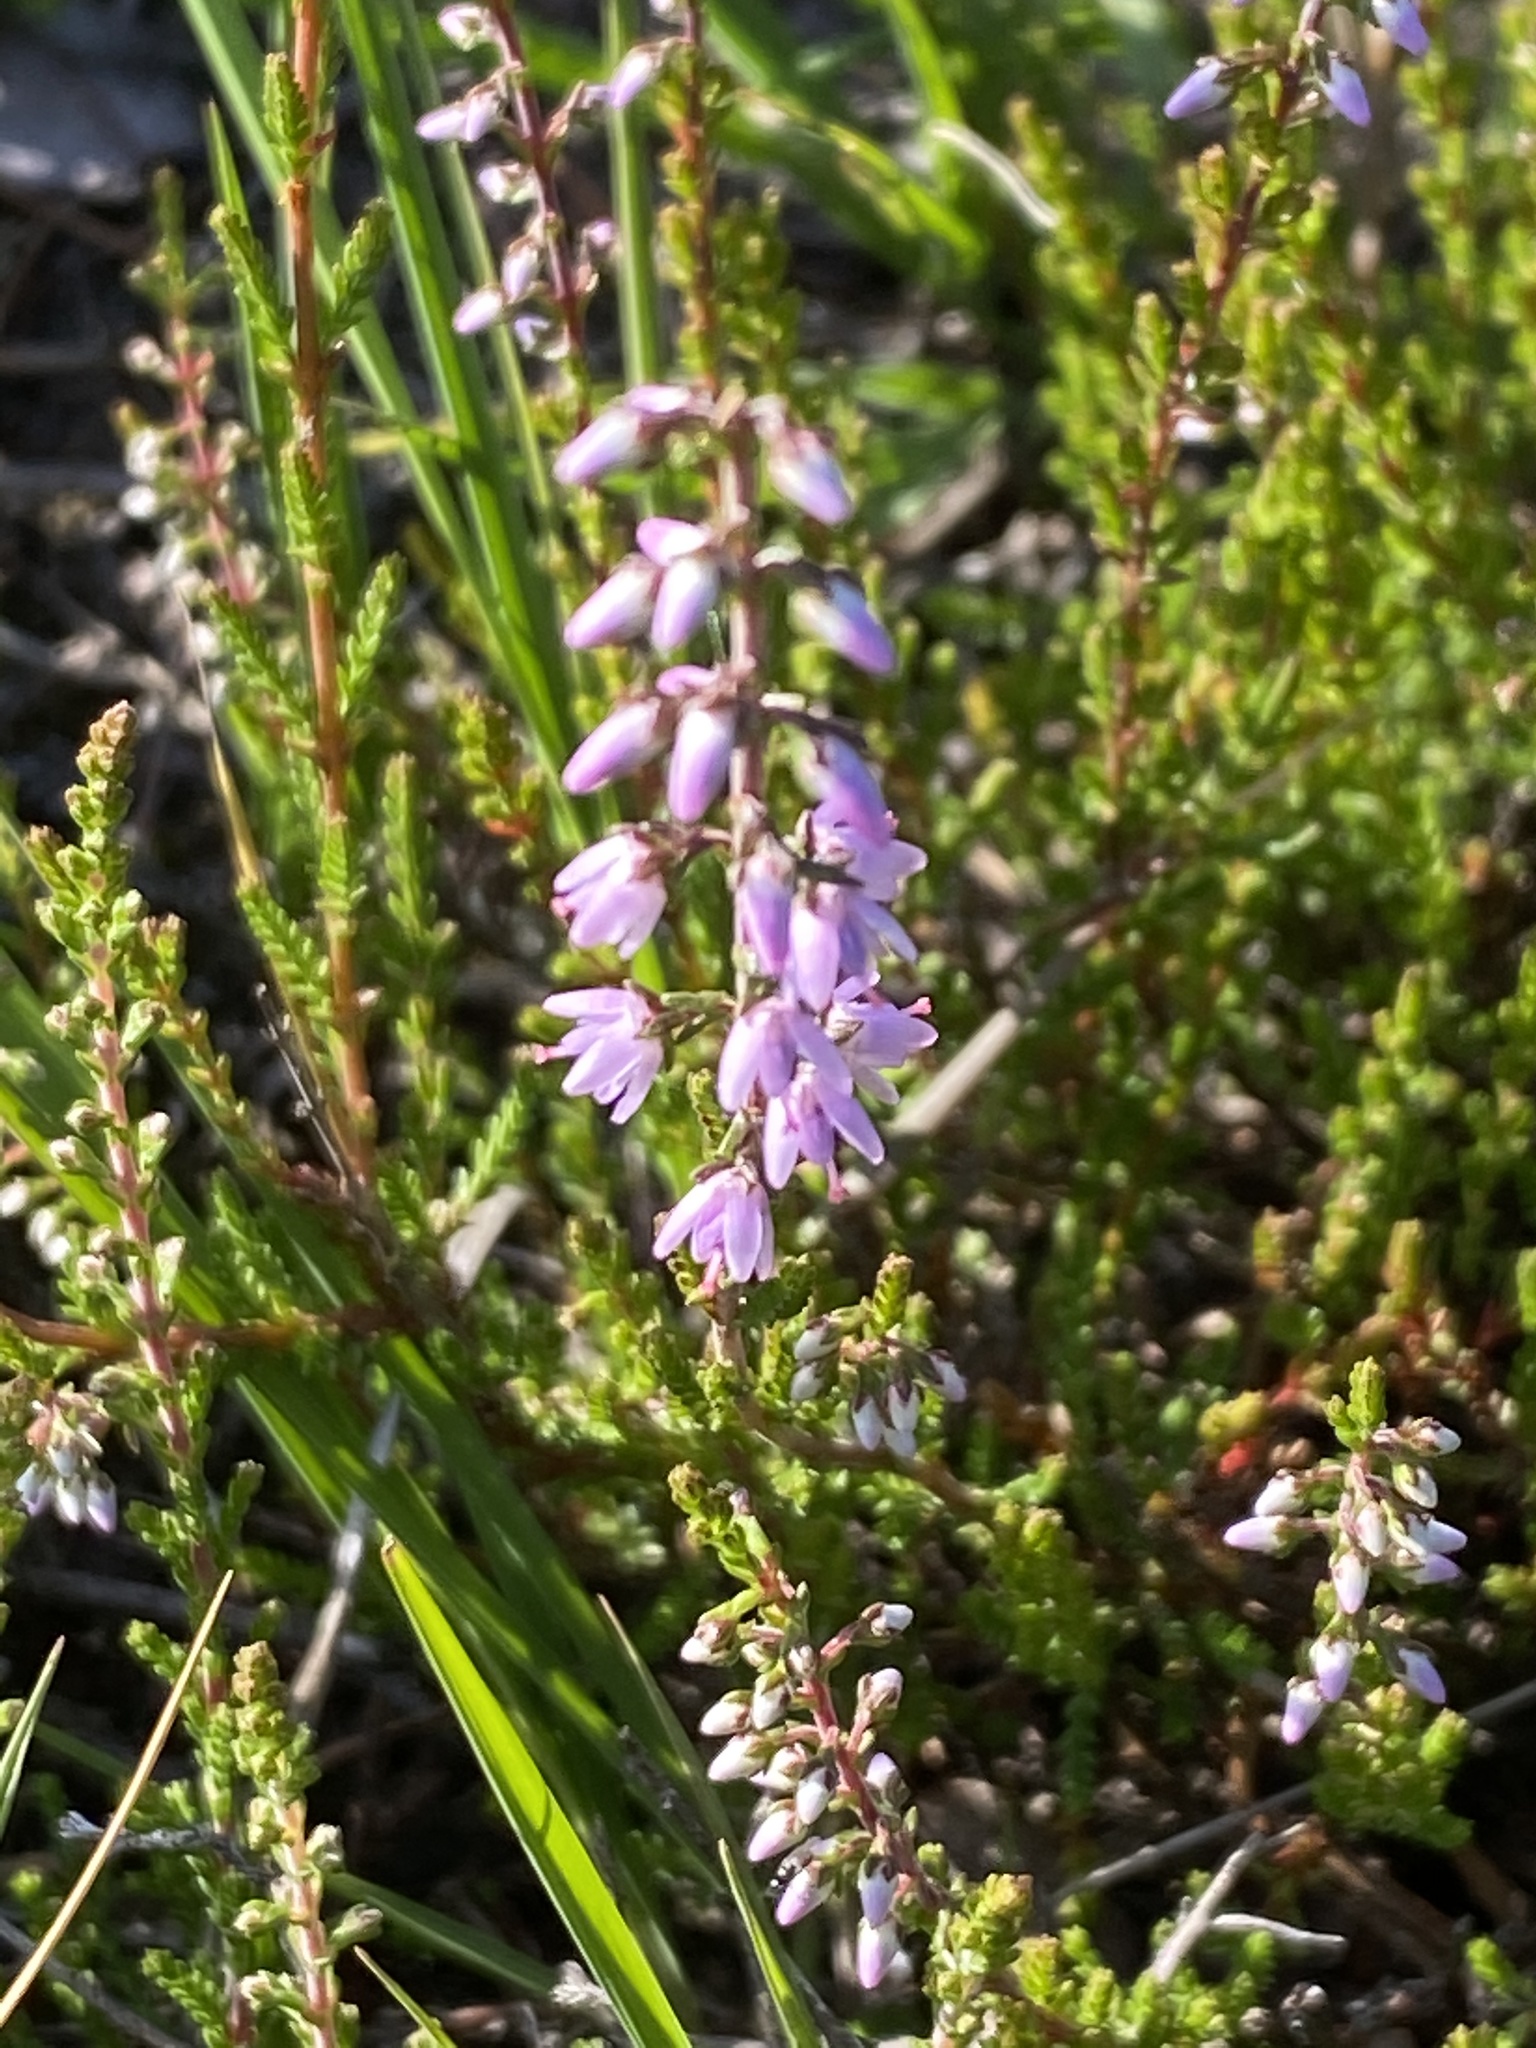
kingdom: Plantae
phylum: Tracheophyta
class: Magnoliopsida
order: Ericales
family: Ericaceae
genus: Calluna
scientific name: Calluna vulgaris
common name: Heather
